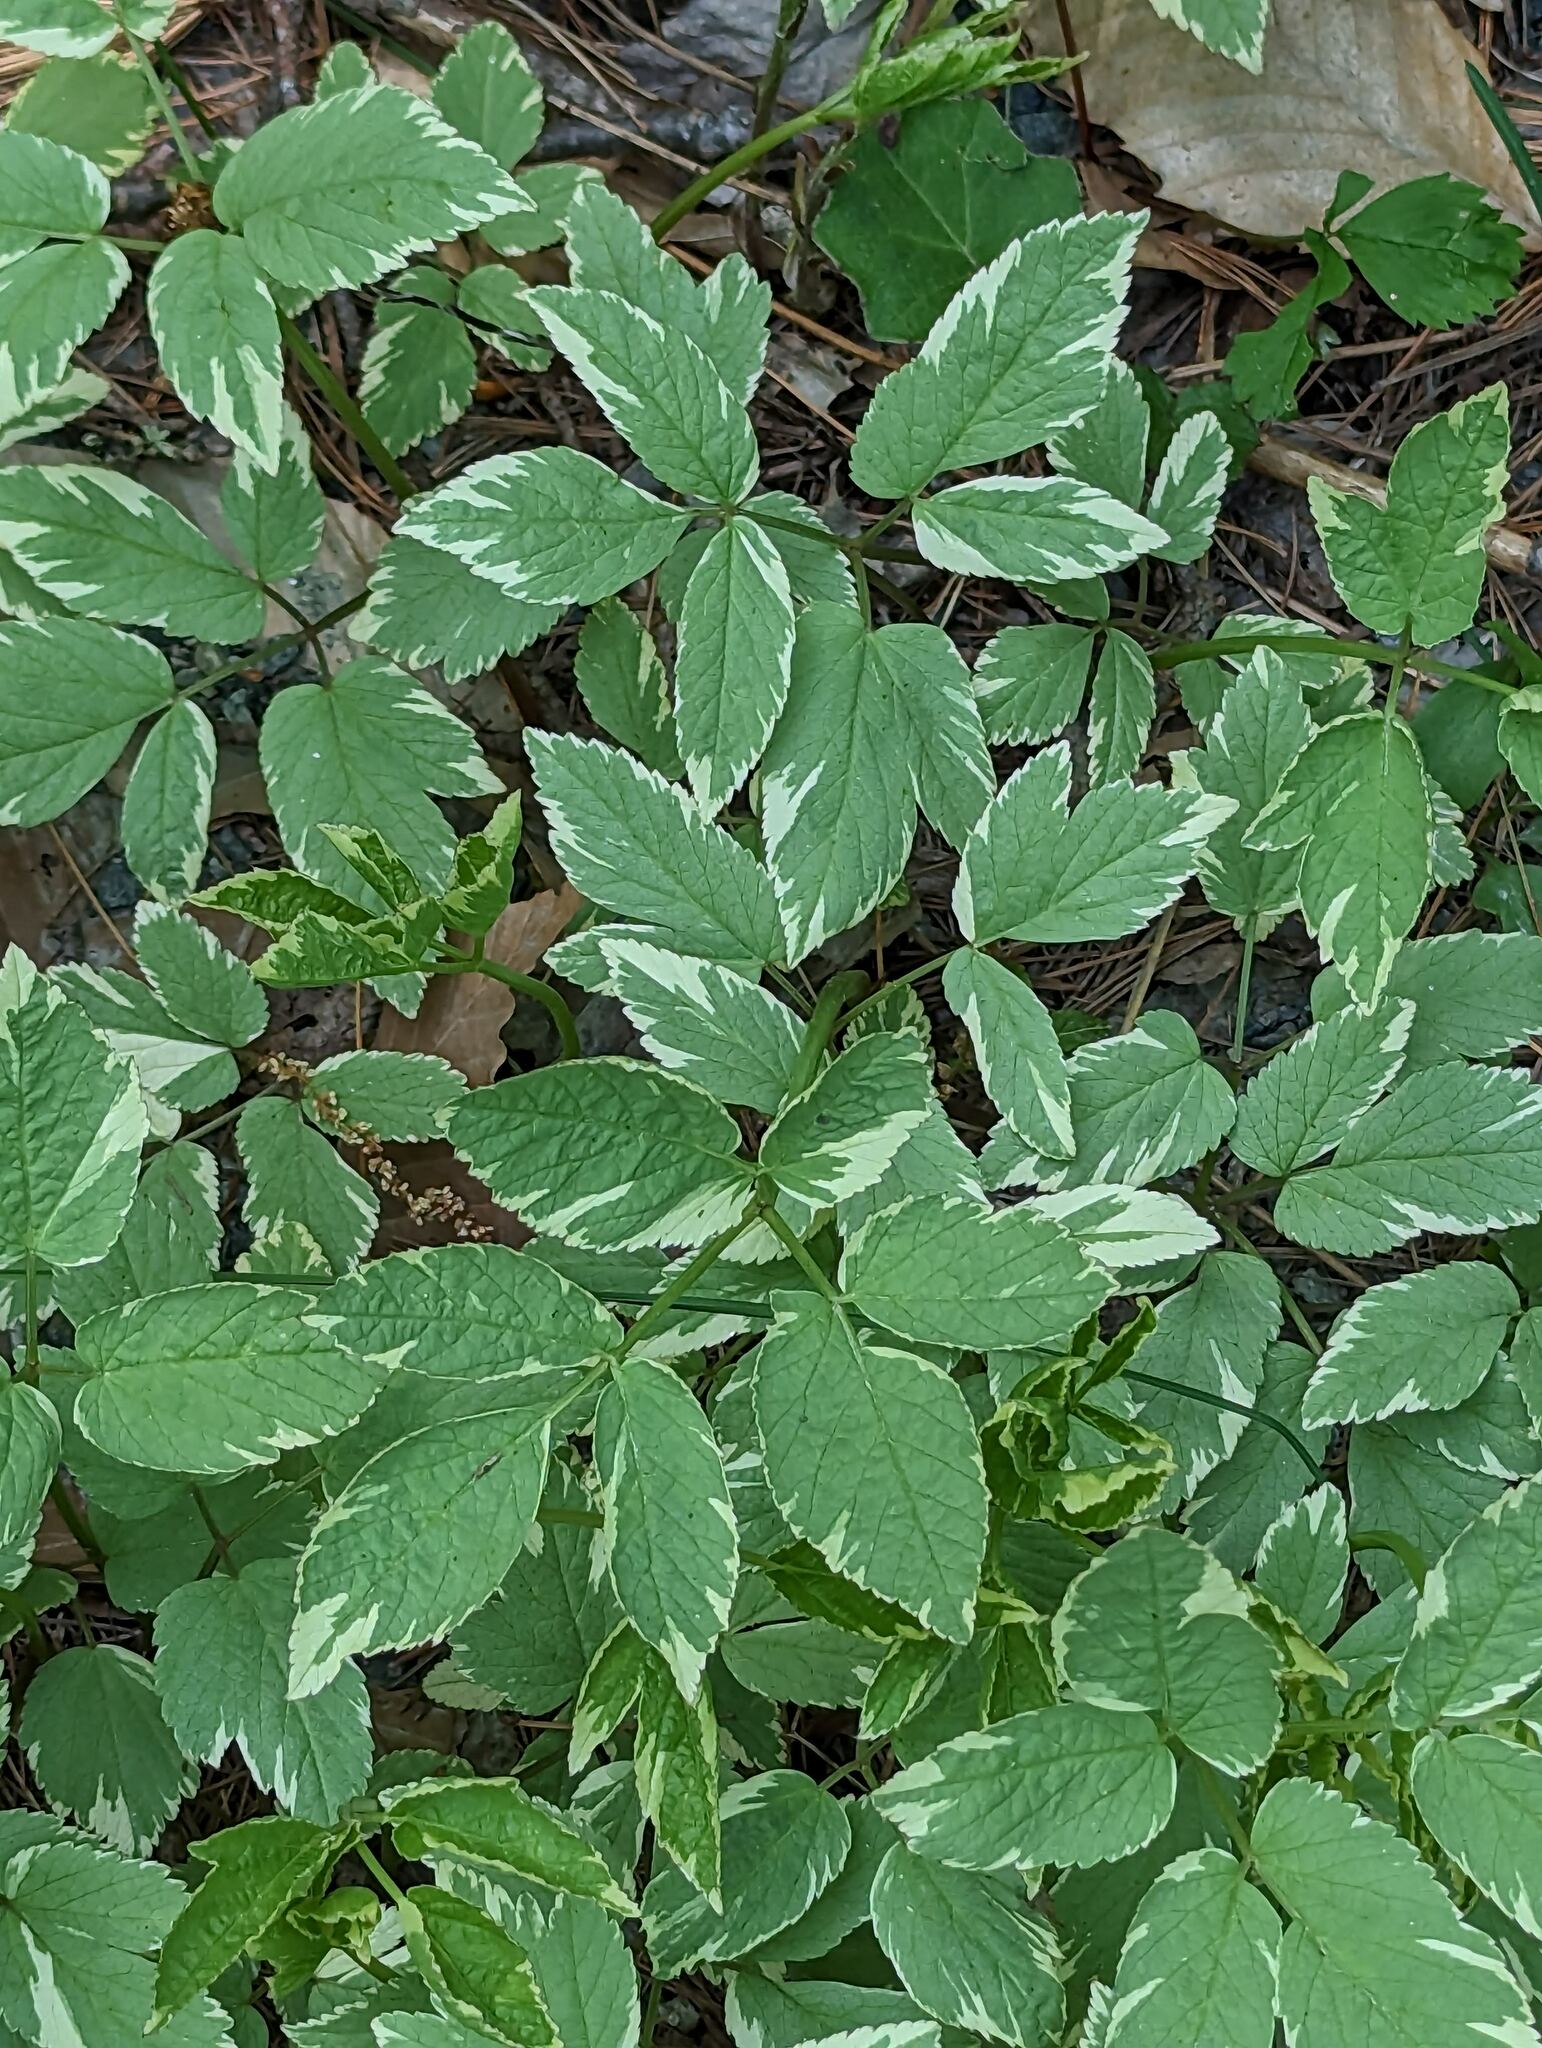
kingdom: Plantae
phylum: Tracheophyta
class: Magnoliopsida
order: Apiales
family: Apiaceae
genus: Aegopodium
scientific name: Aegopodium podagraria
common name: Ground-elder
